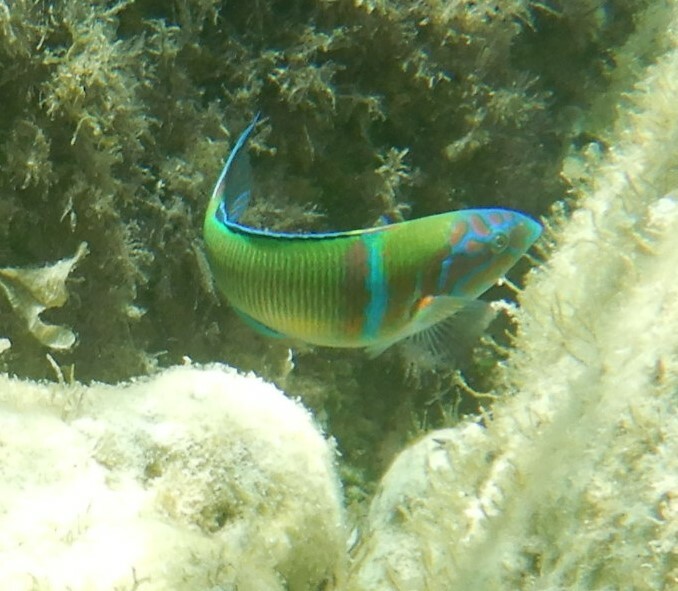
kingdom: Animalia
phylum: Chordata
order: Perciformes
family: Labridae
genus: Thalassoma
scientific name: Thalassoma pavo
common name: Ornate wrasse
